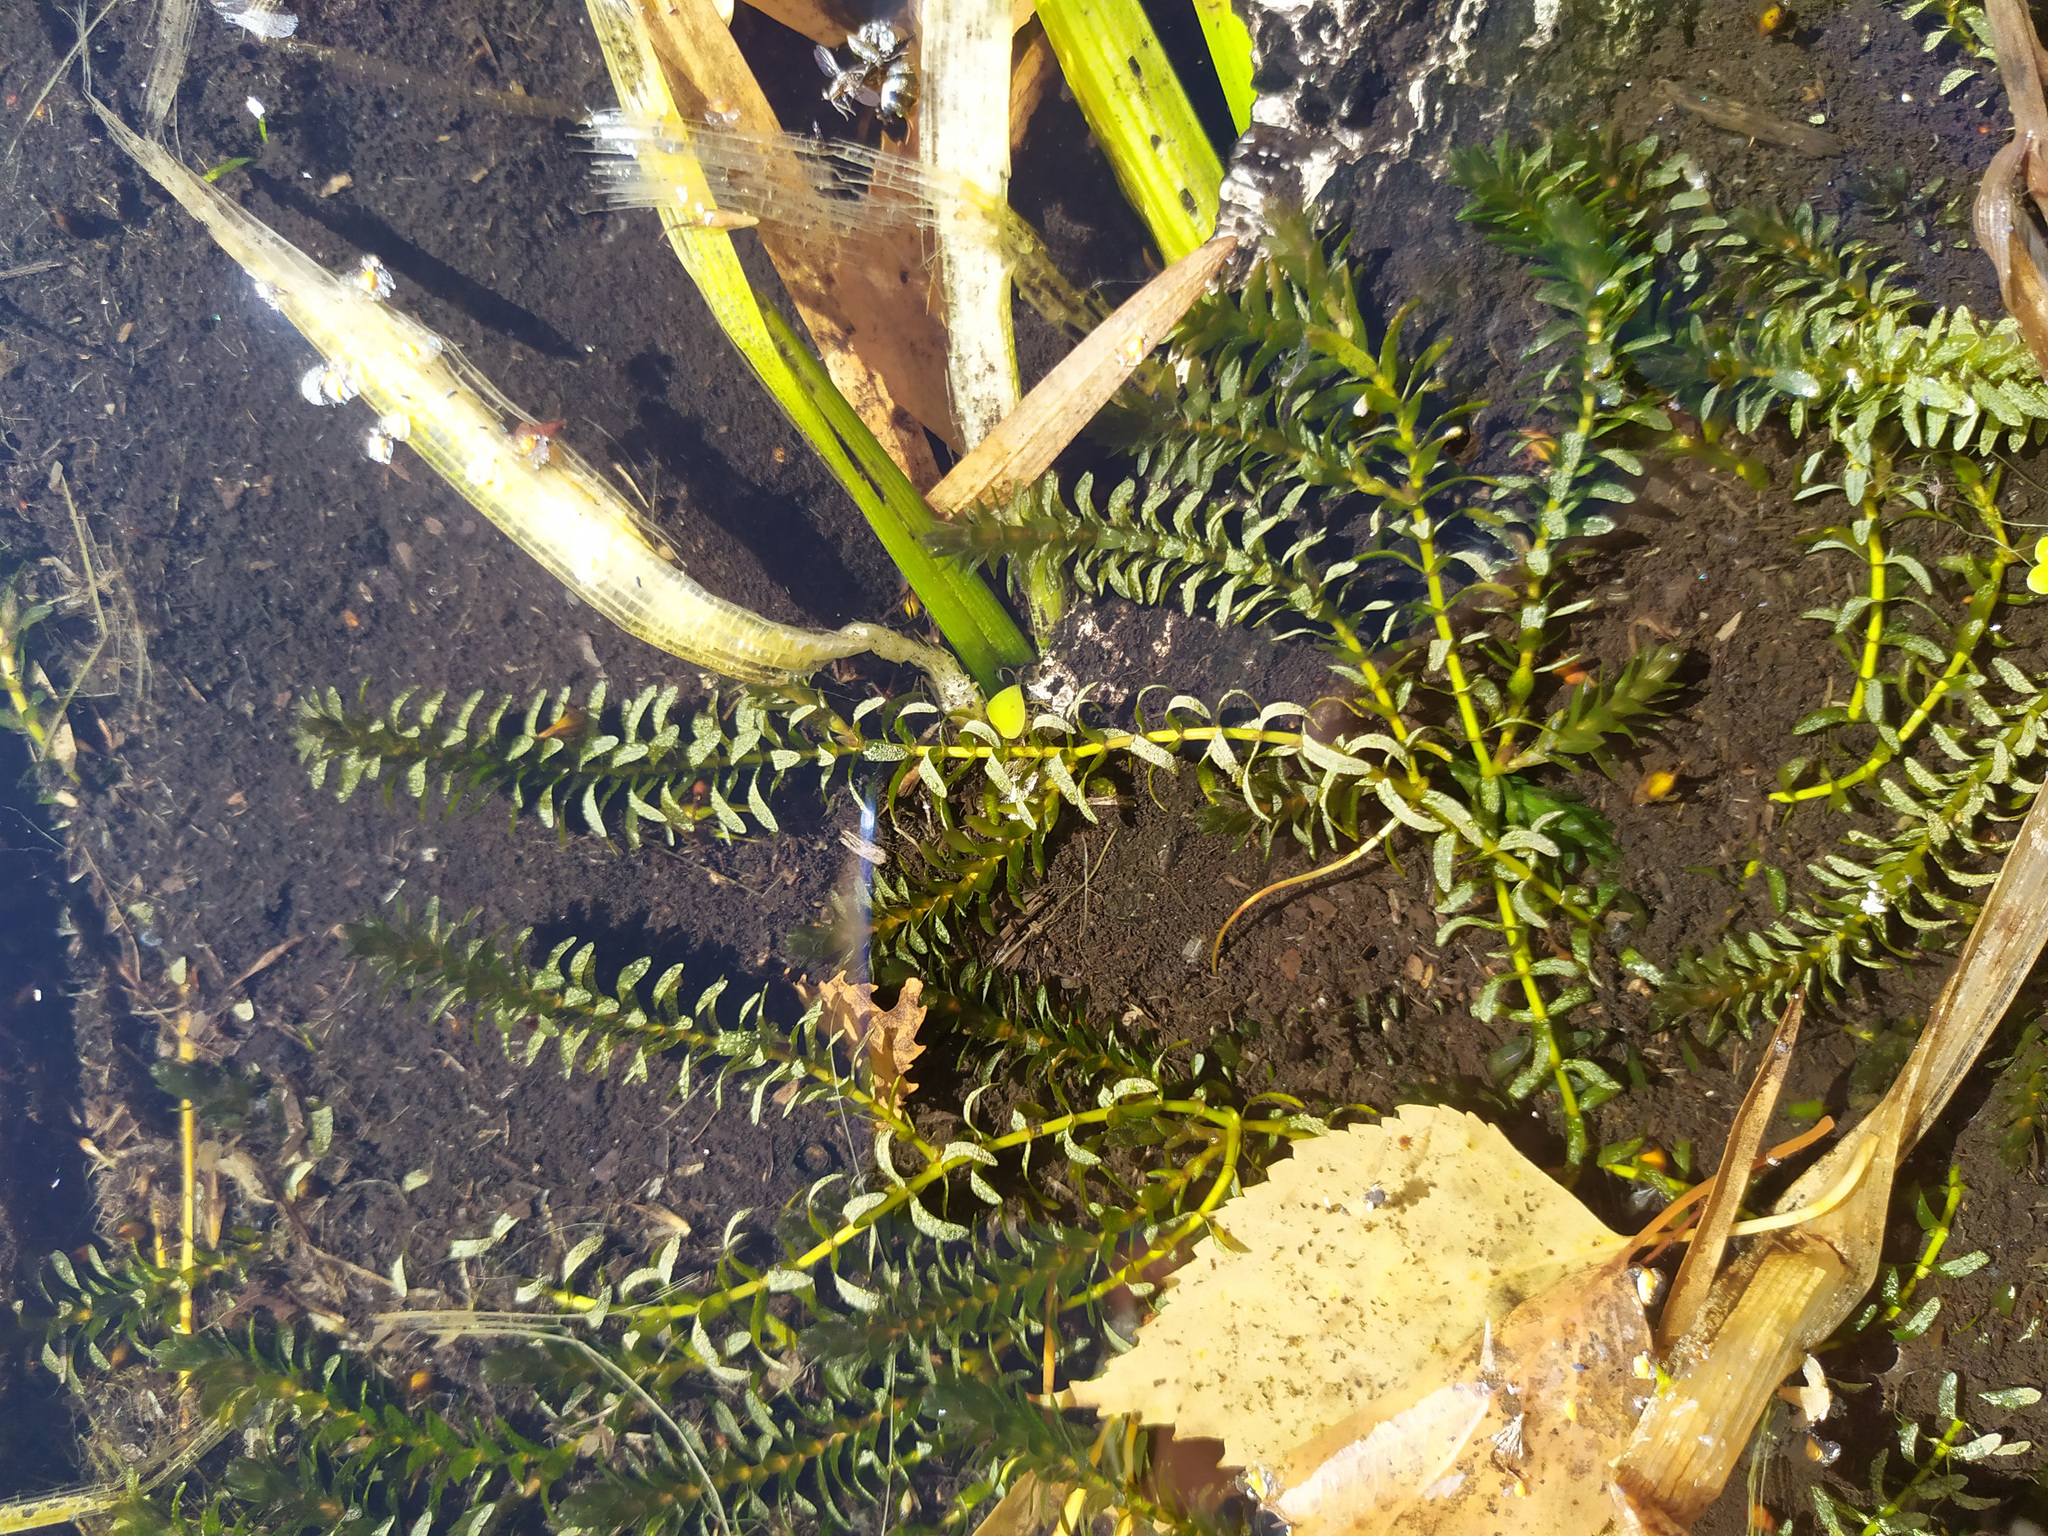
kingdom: Plantae
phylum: Tracheophyta
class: Liliopsida
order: Alismatales
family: Hydrocharitaceae
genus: Elodea
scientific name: Elodea canadensis
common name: Canadian waterweed
